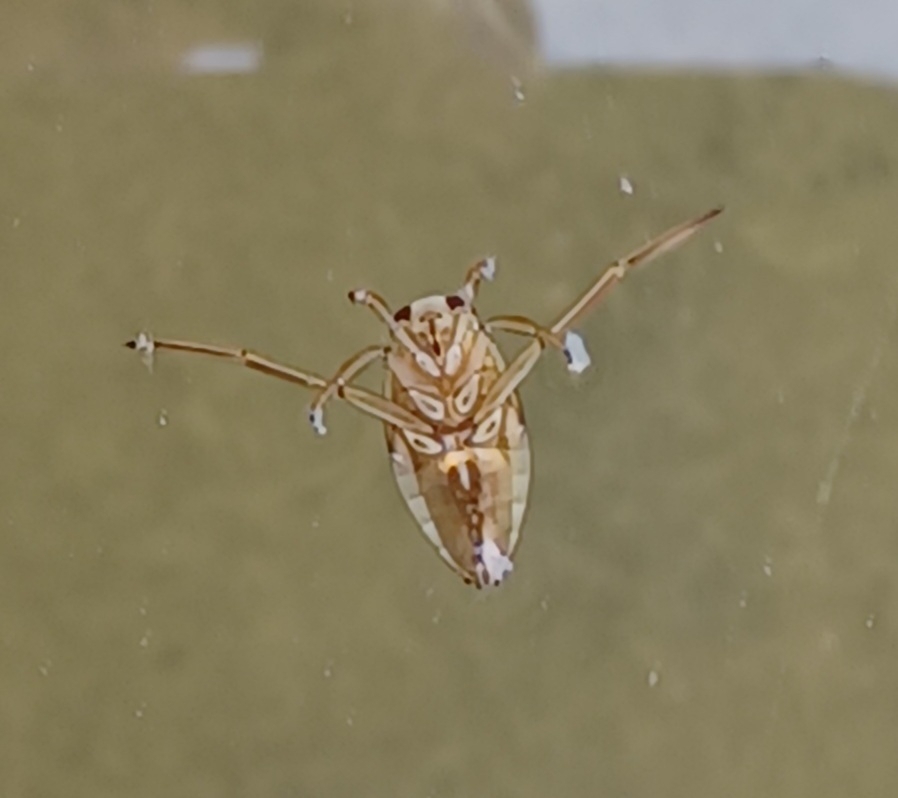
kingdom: Animalia
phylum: Arthropoda
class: Insecta
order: Hemiptera
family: Notonectidae
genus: Notonecta
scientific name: Notonecta
